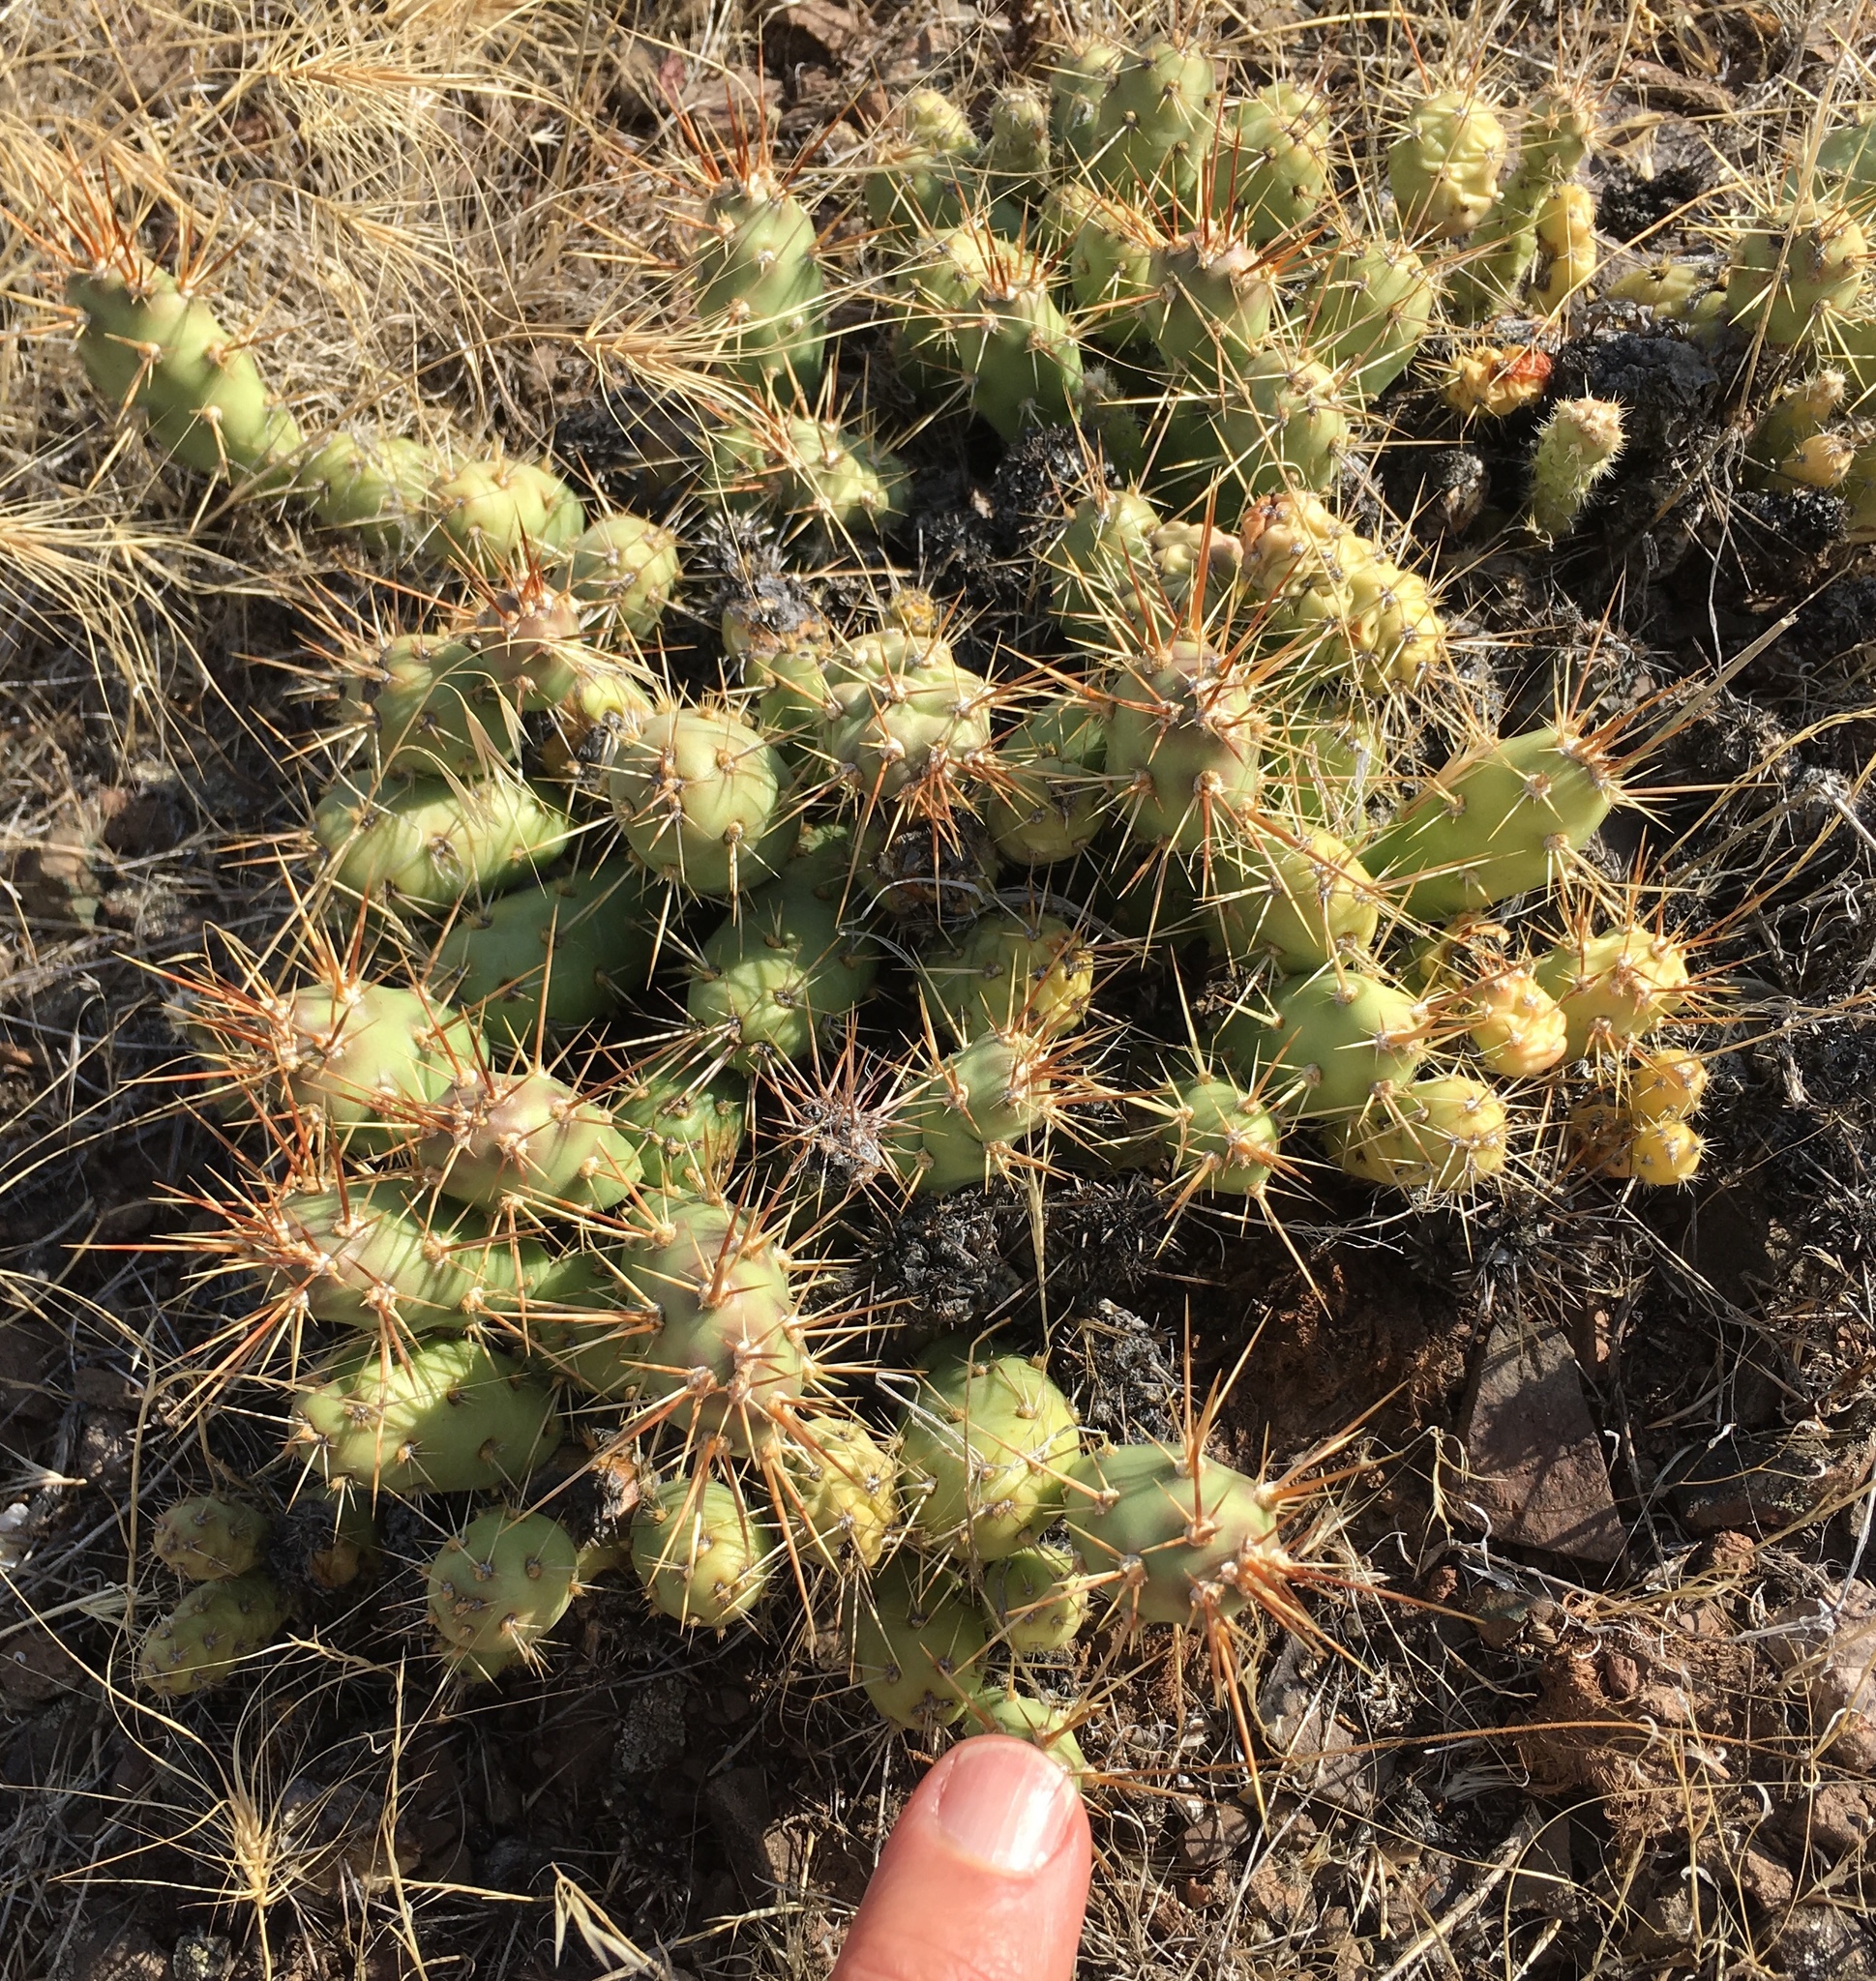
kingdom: Plantae
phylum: Tracheophyta
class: Magnoliopsida
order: Caryophyllales
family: Cactaceae
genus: Opuntia
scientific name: Opuntia fragilis
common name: Brittle cactus
